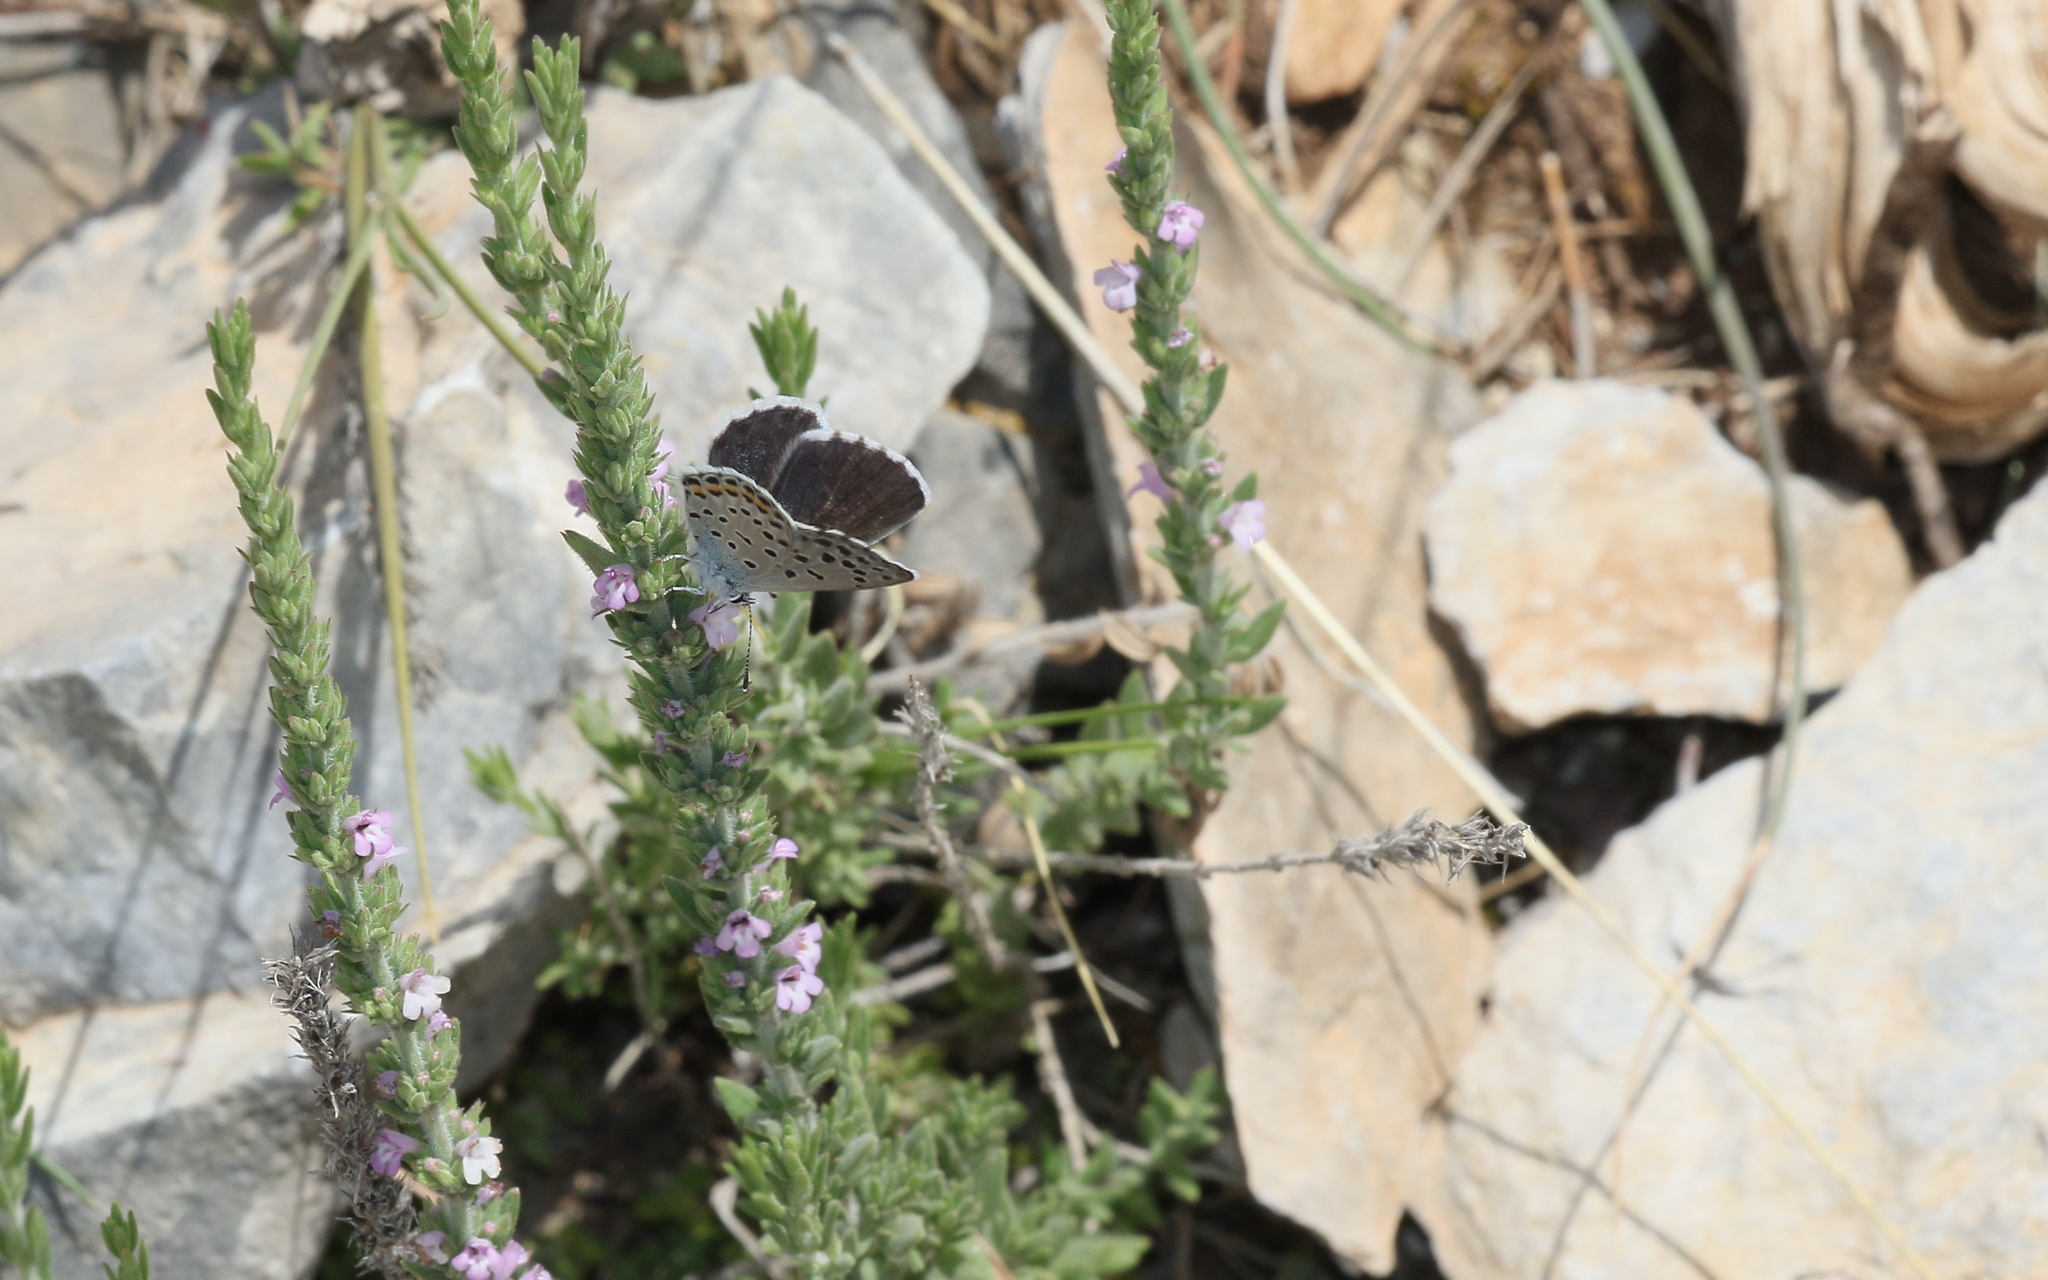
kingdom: Animalia
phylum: Arthropoda
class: Insecta
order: Lepidoptera
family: Lycaenidae
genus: Pseudophilotes
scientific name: Pseudophilotes baton
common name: Baton blue
